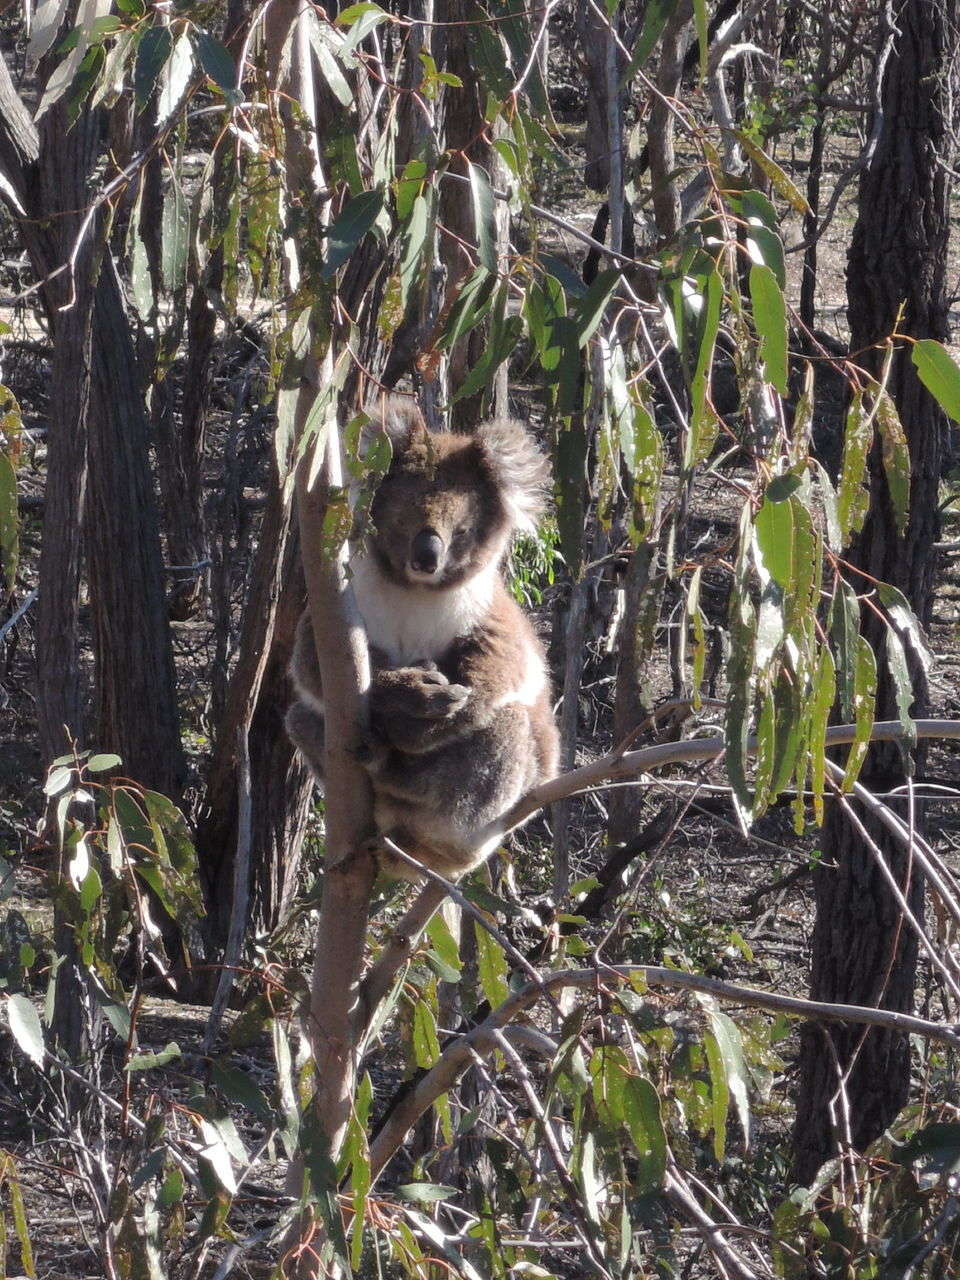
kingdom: Animalia
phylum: Chordata
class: Mammalia
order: Diprotodontia
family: Phascolarctidae
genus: Phascolarctos
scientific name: Phascolarctos cinereus
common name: Koala
